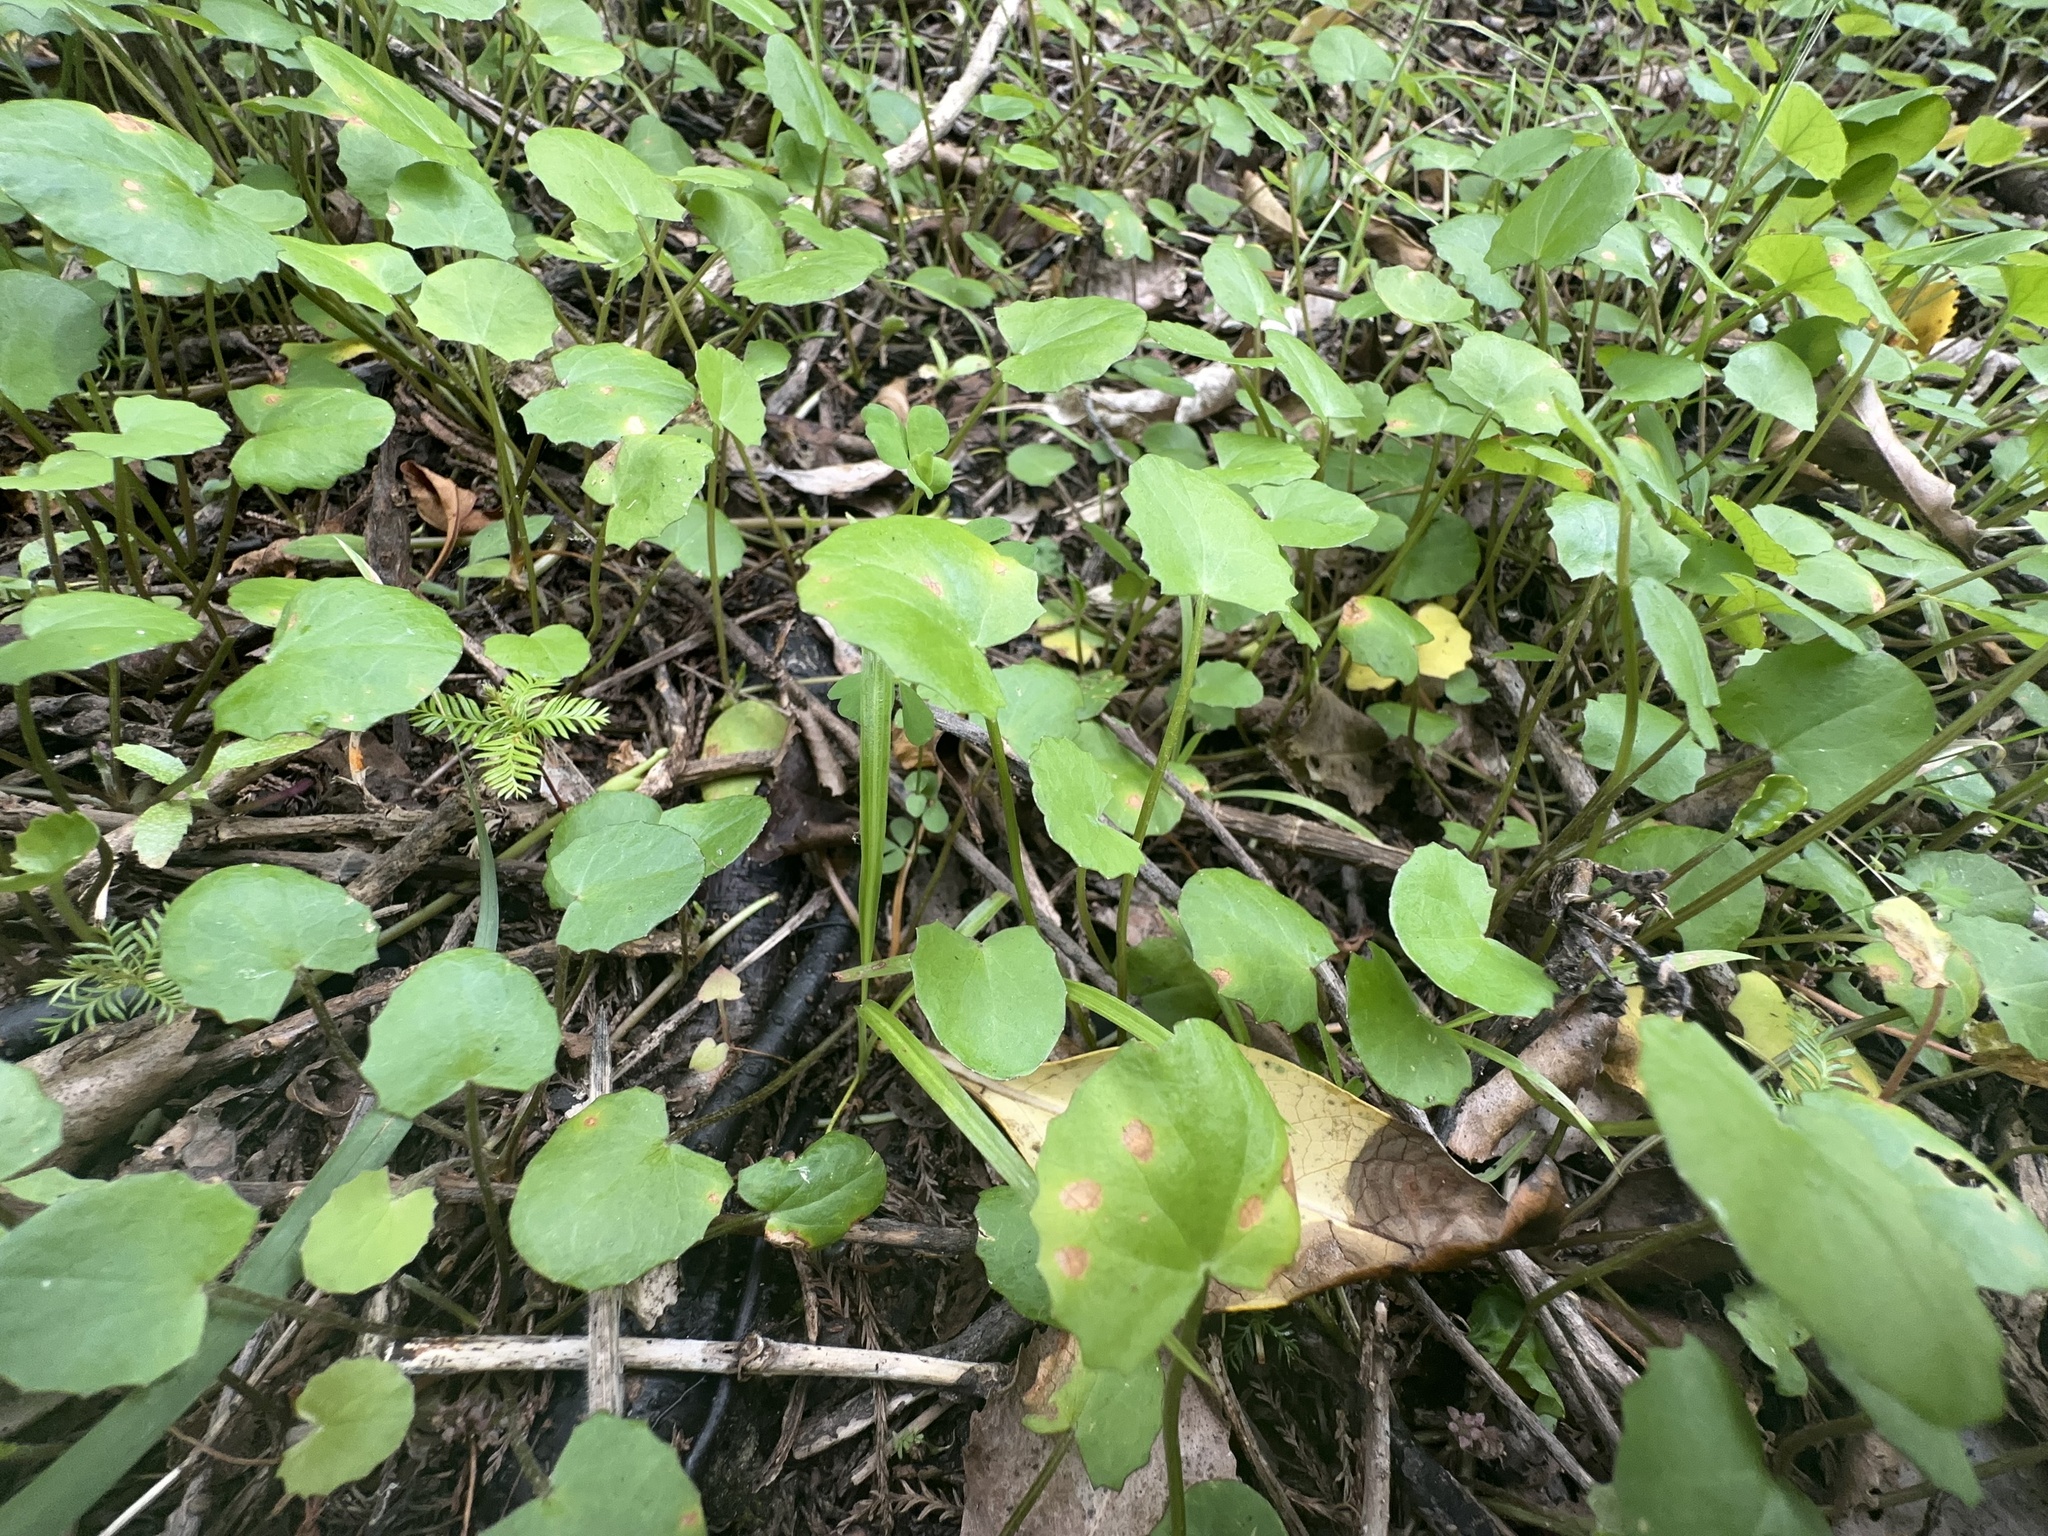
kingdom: Plantae
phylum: Tracheophyta
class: Magnoliopsida
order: Apiales
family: Apiaceae
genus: Centella
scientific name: Centella uniflora
